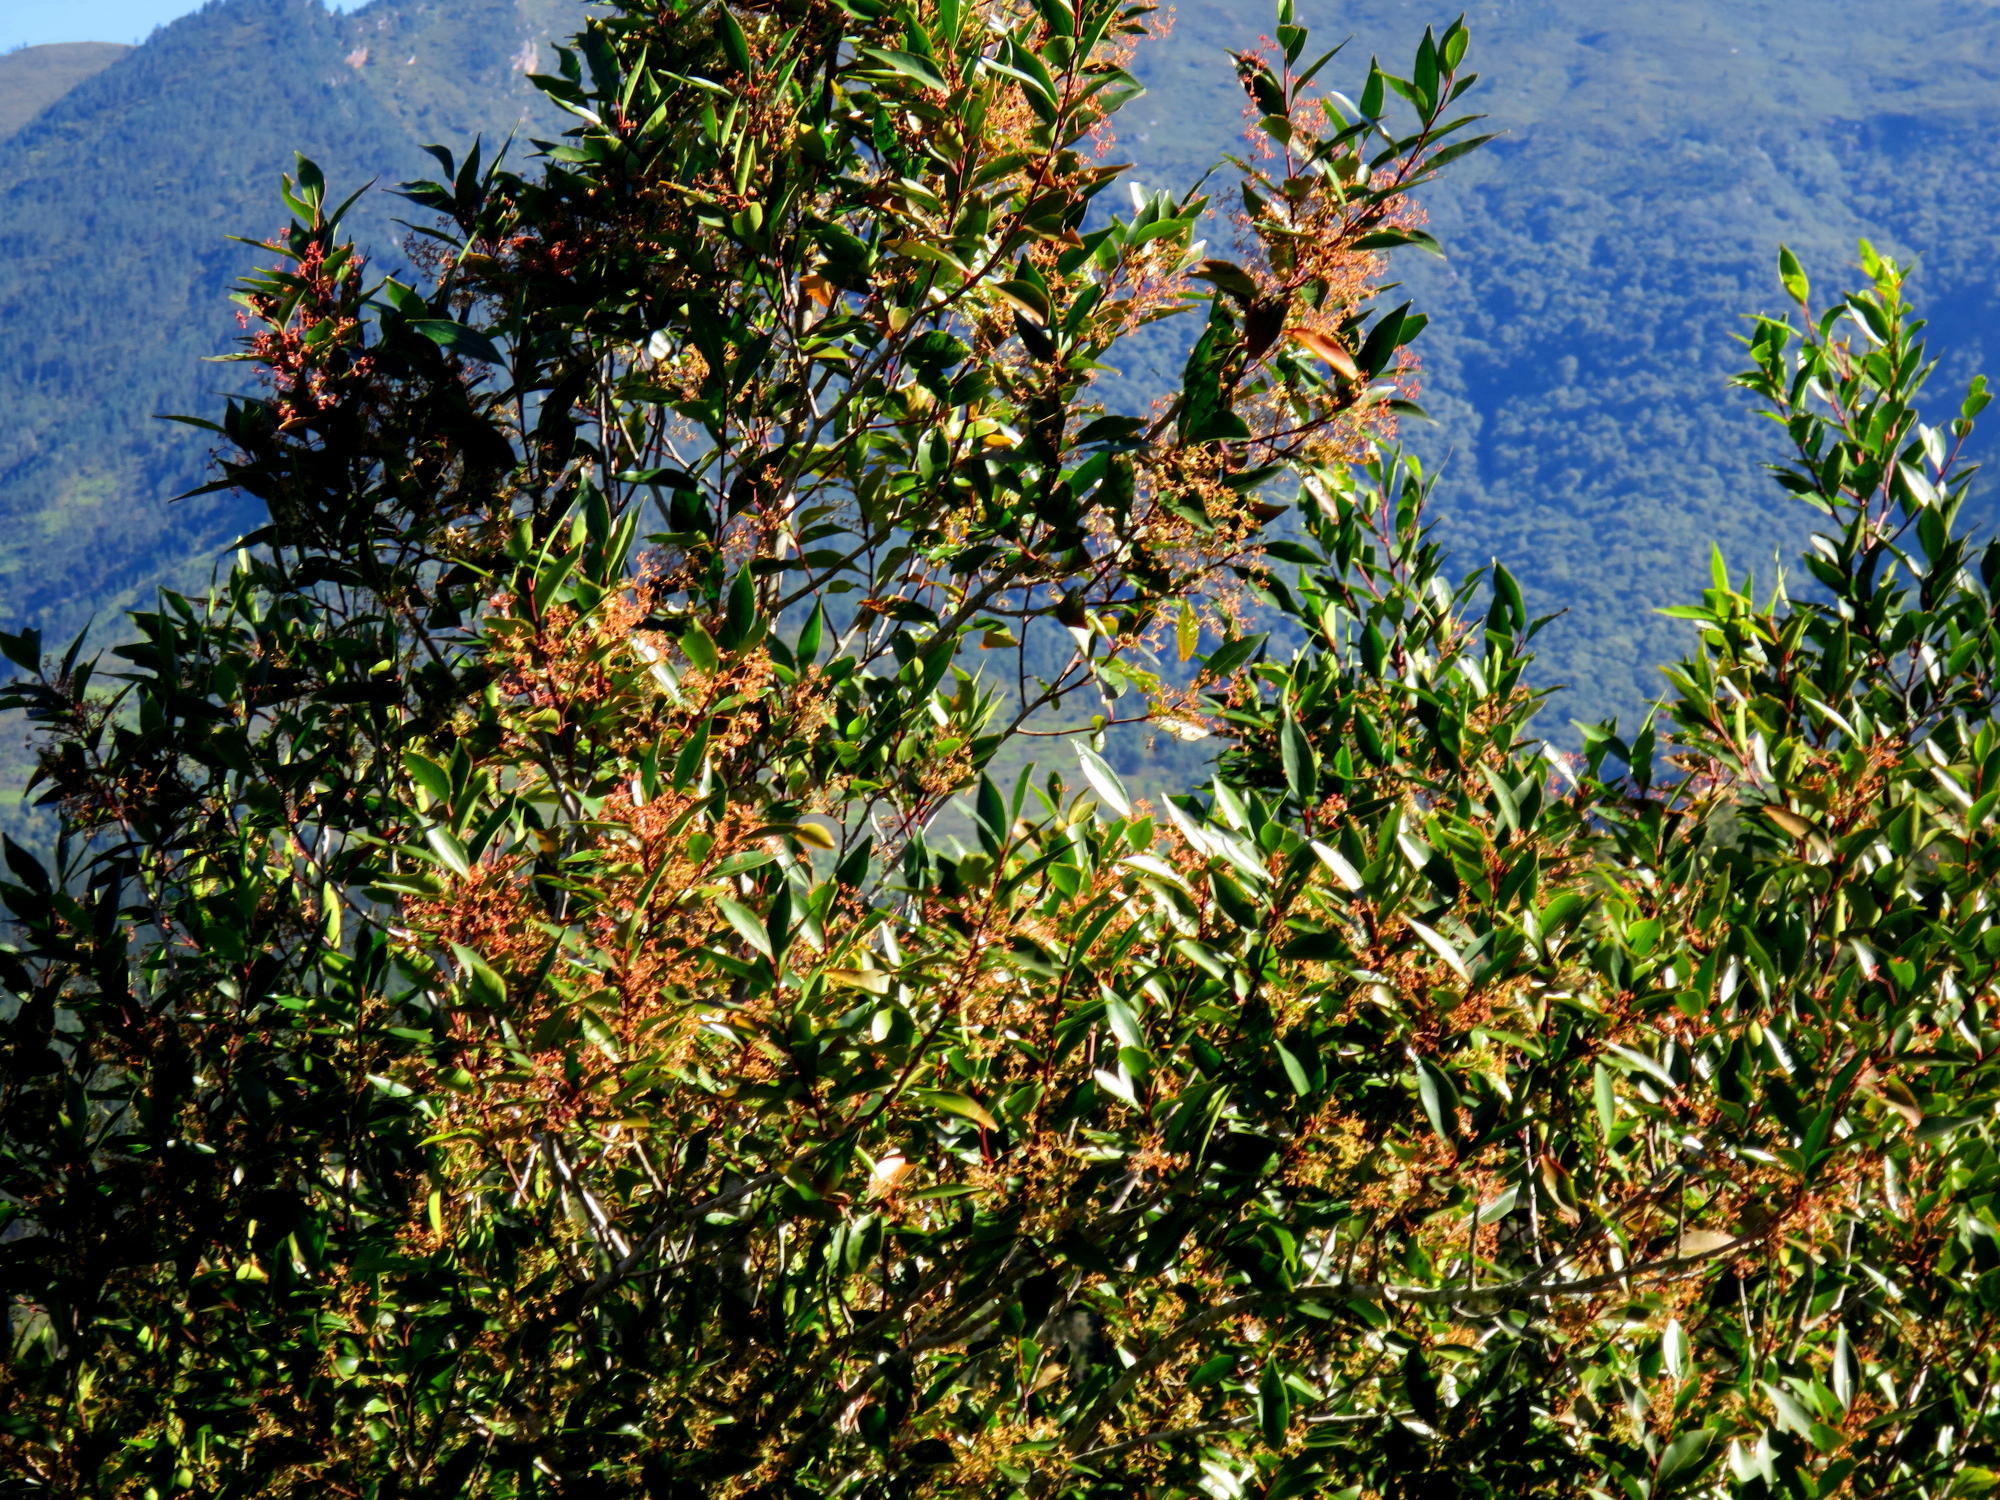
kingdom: Plantae
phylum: Tracheophyta
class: Magnoliopsida
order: Celastrales
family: Celastraceae
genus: Pterocelastrus
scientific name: Pterocelastrus rostratus
